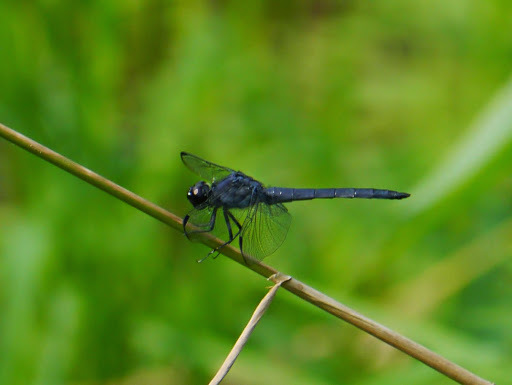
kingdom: Animalia
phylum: Arthropoda
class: Insecta
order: Odonata
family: Libellulidae
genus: Libellula
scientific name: Libellula incesta
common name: Slaty skimmer
